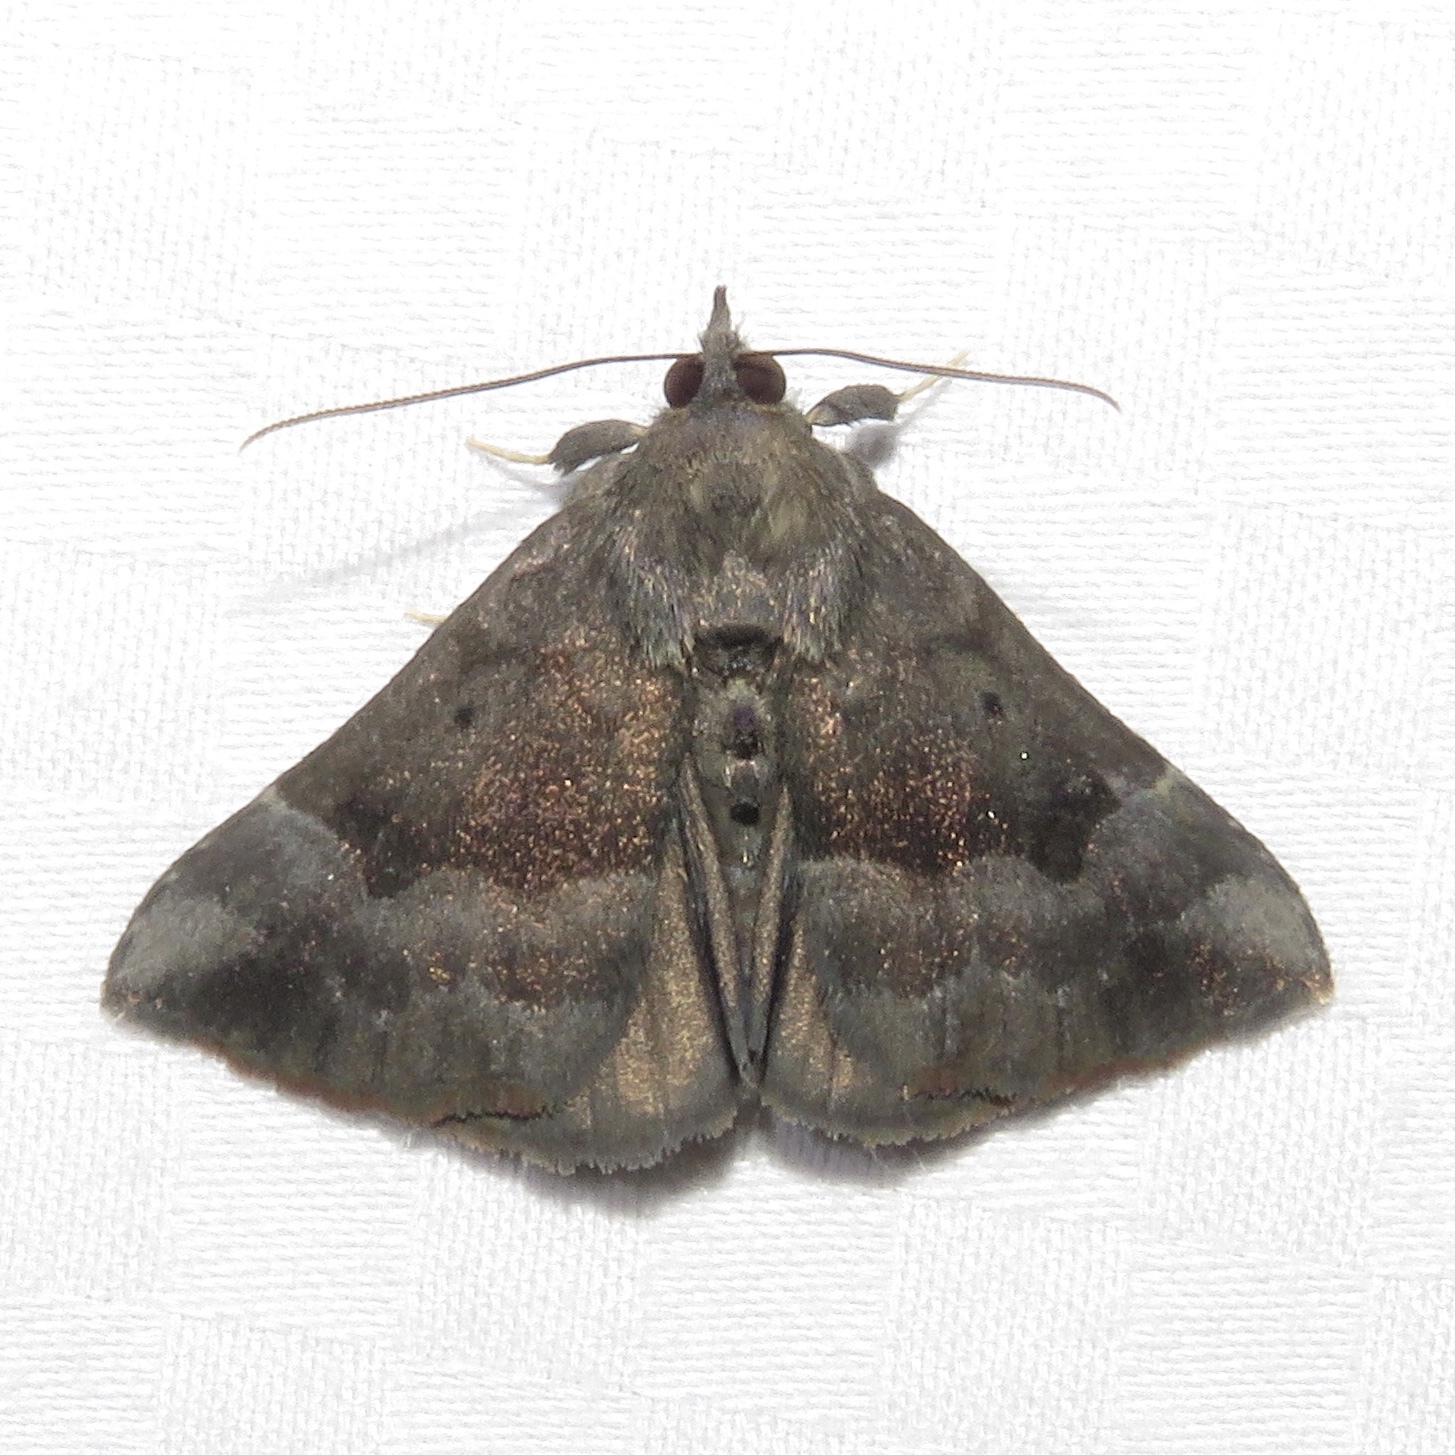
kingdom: Animalia
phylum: Arthropoda
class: Insecta
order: Lepidoptera
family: Erebidae
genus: Hypena
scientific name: Hypena madefactalis
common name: Gray-edged snout
